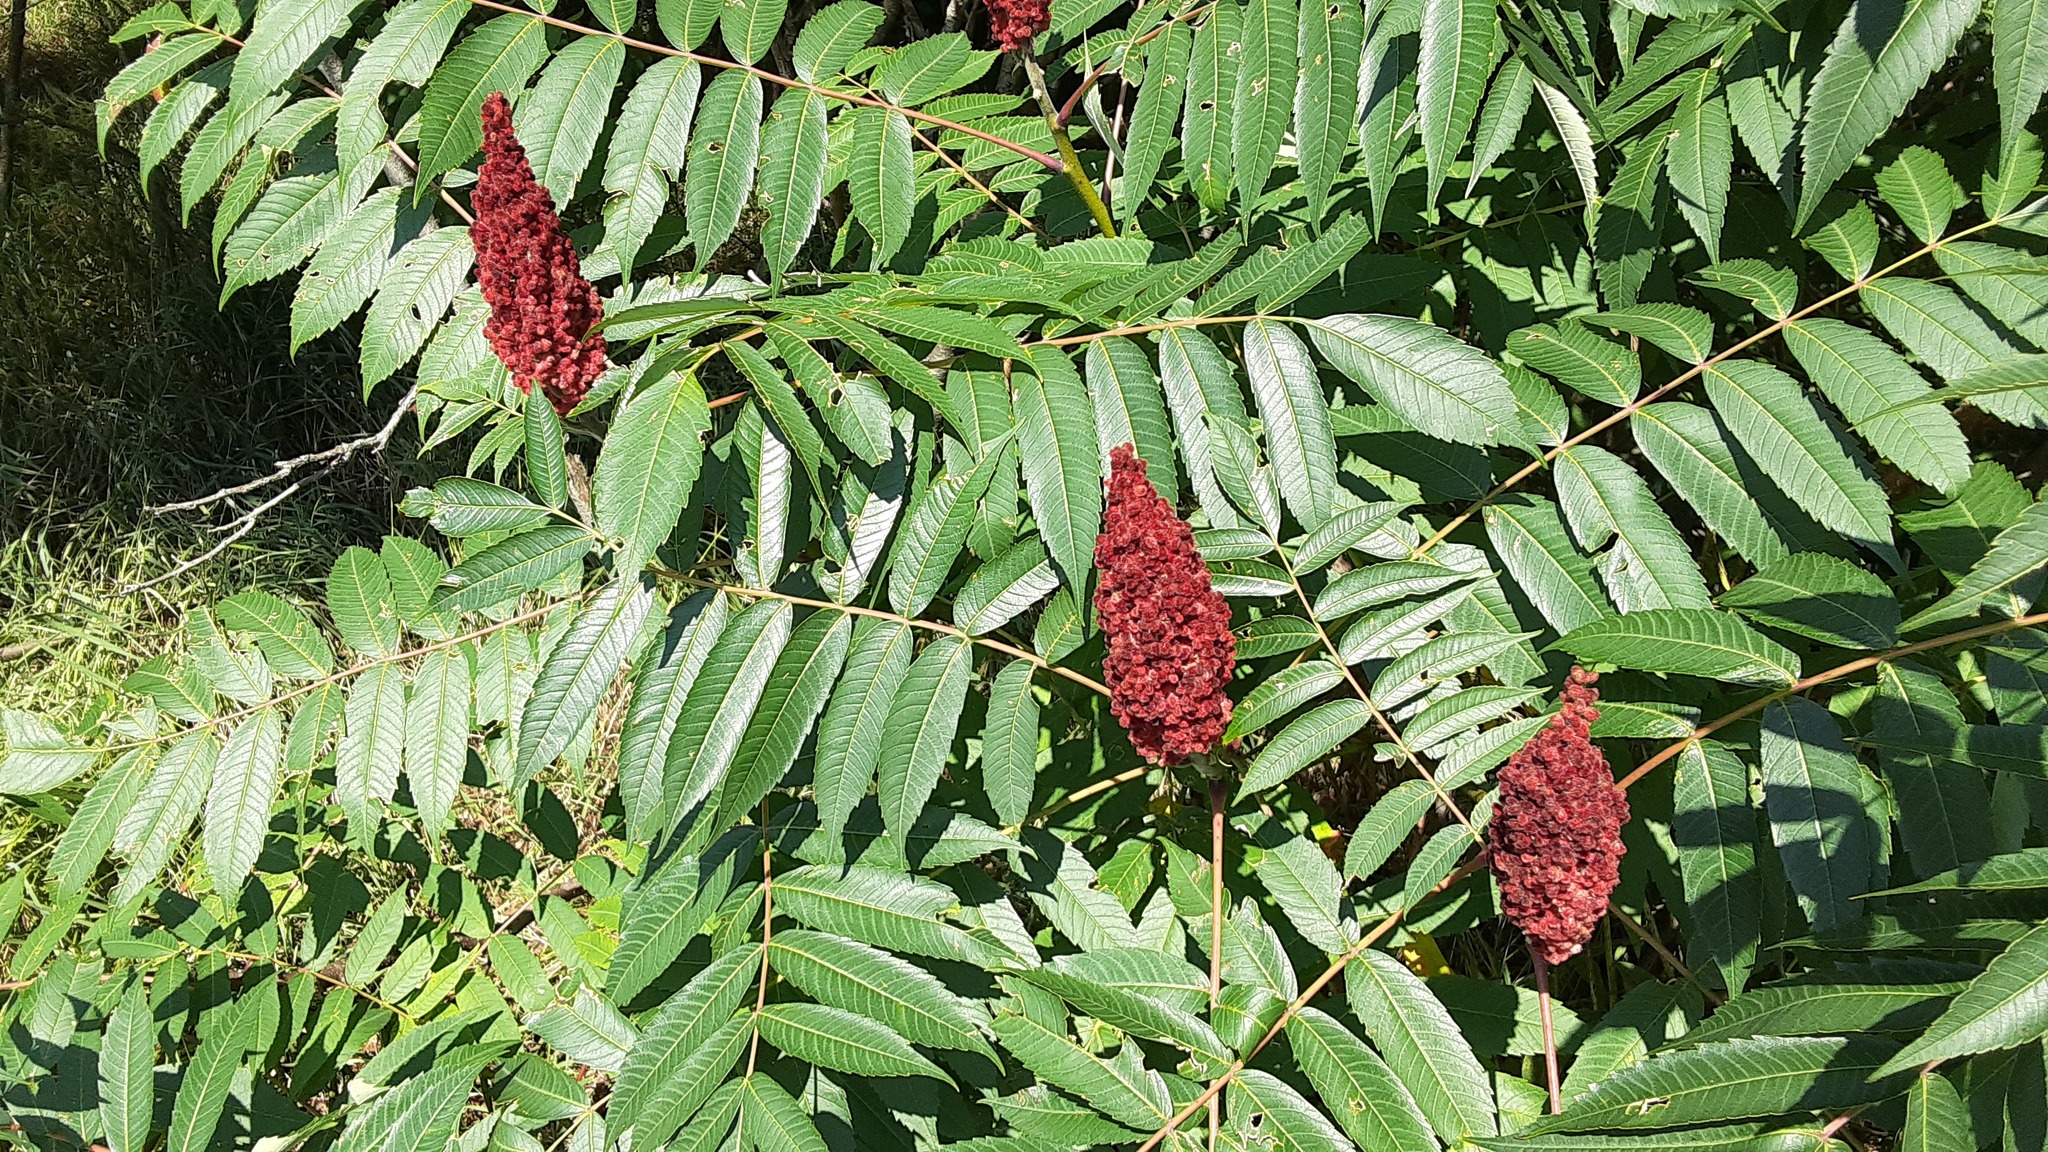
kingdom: Plantae
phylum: Tracheophyta
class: Magnoliopsida
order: Sapindales
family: Anacardiaceae
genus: Rhus
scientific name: Rhus typhina
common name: Staghorn sumac
